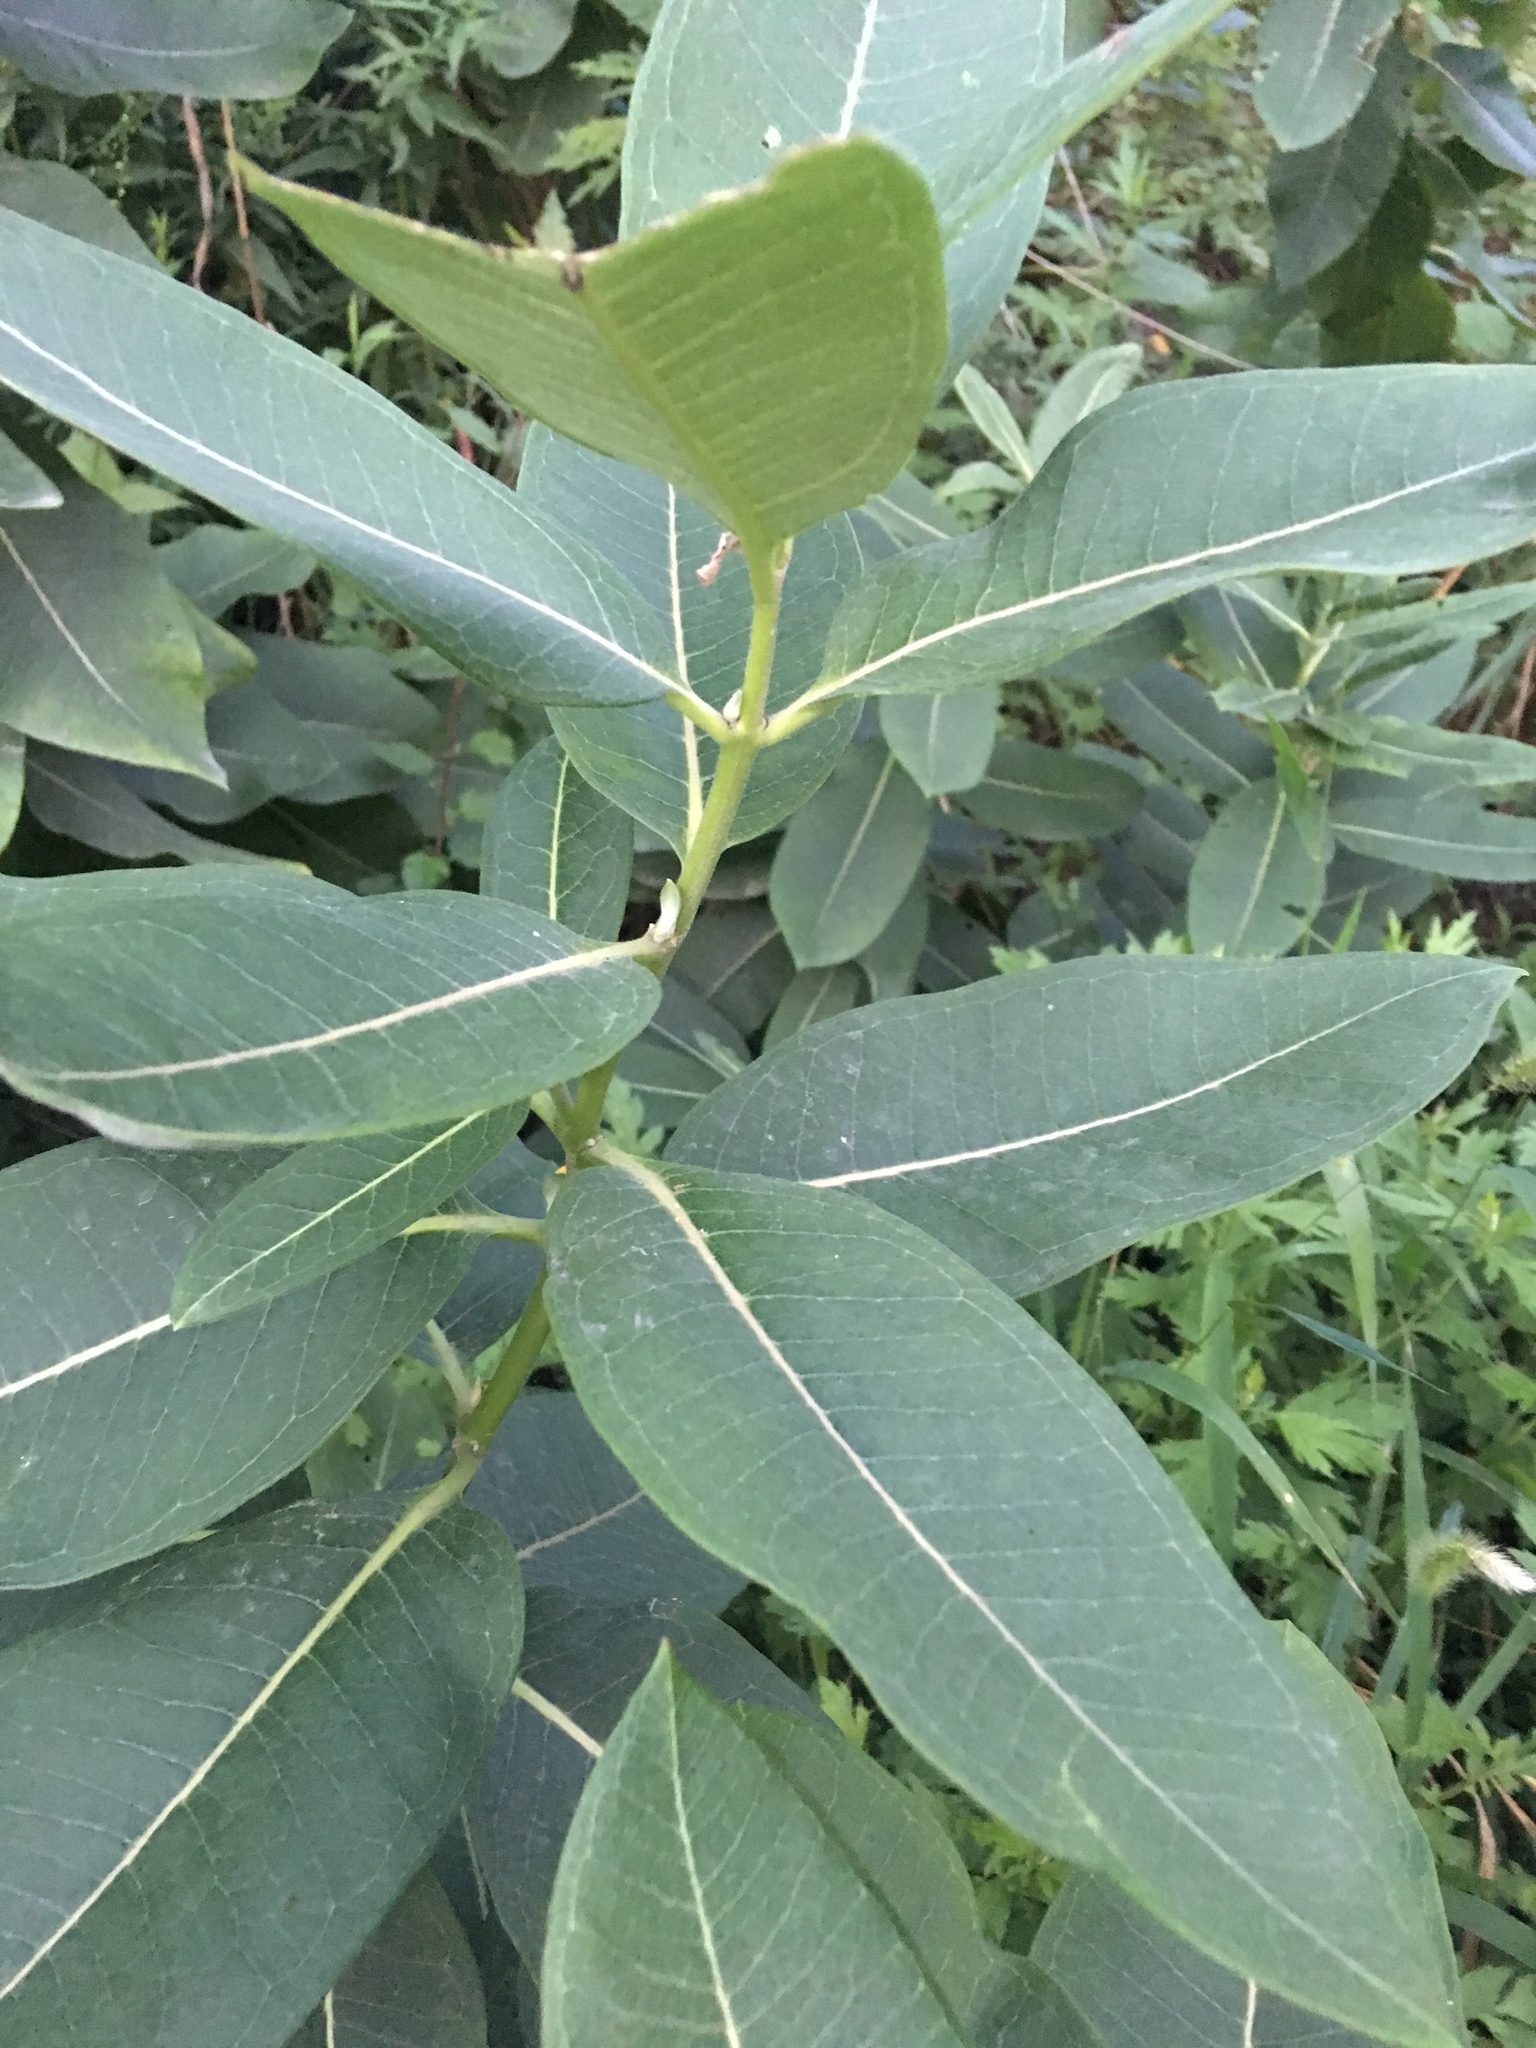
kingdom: Plantae
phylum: Tracheophyta
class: Magnoliopsida
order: Gentianales
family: Apocynaceae
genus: Asclepias
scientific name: Asclepias syriaca
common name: Common milkweed
